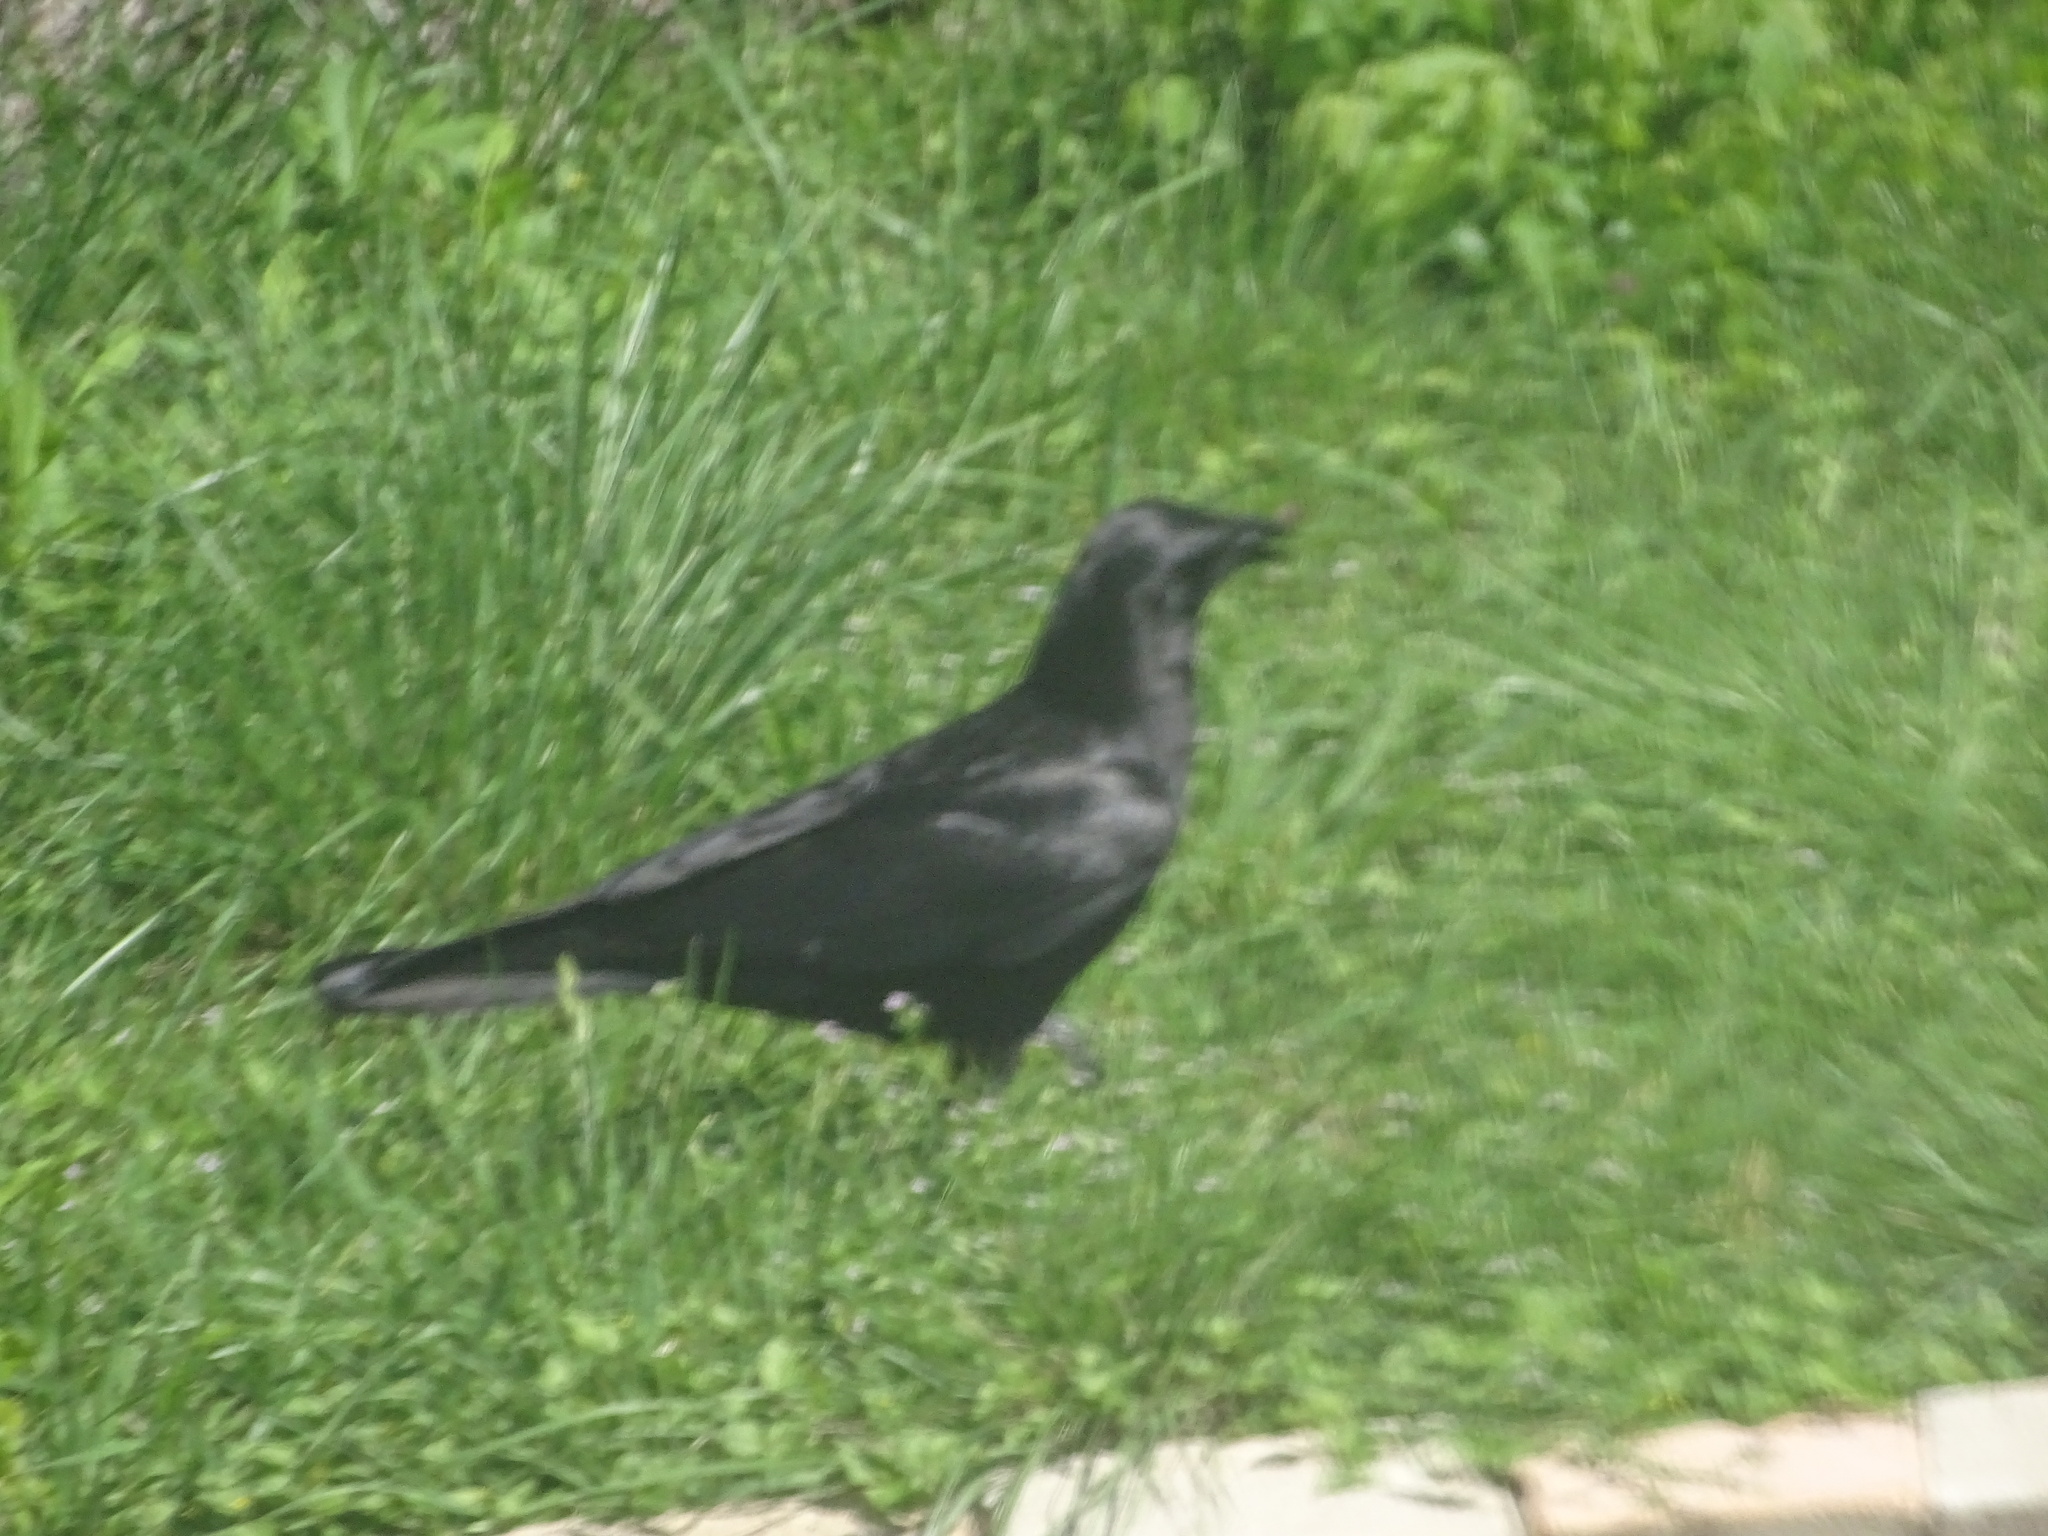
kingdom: Animalia
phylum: Chordata
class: Aves
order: Passeriformes
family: Corvidae
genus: Corvus
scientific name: Corvus brachyrhynchos
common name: American crow
